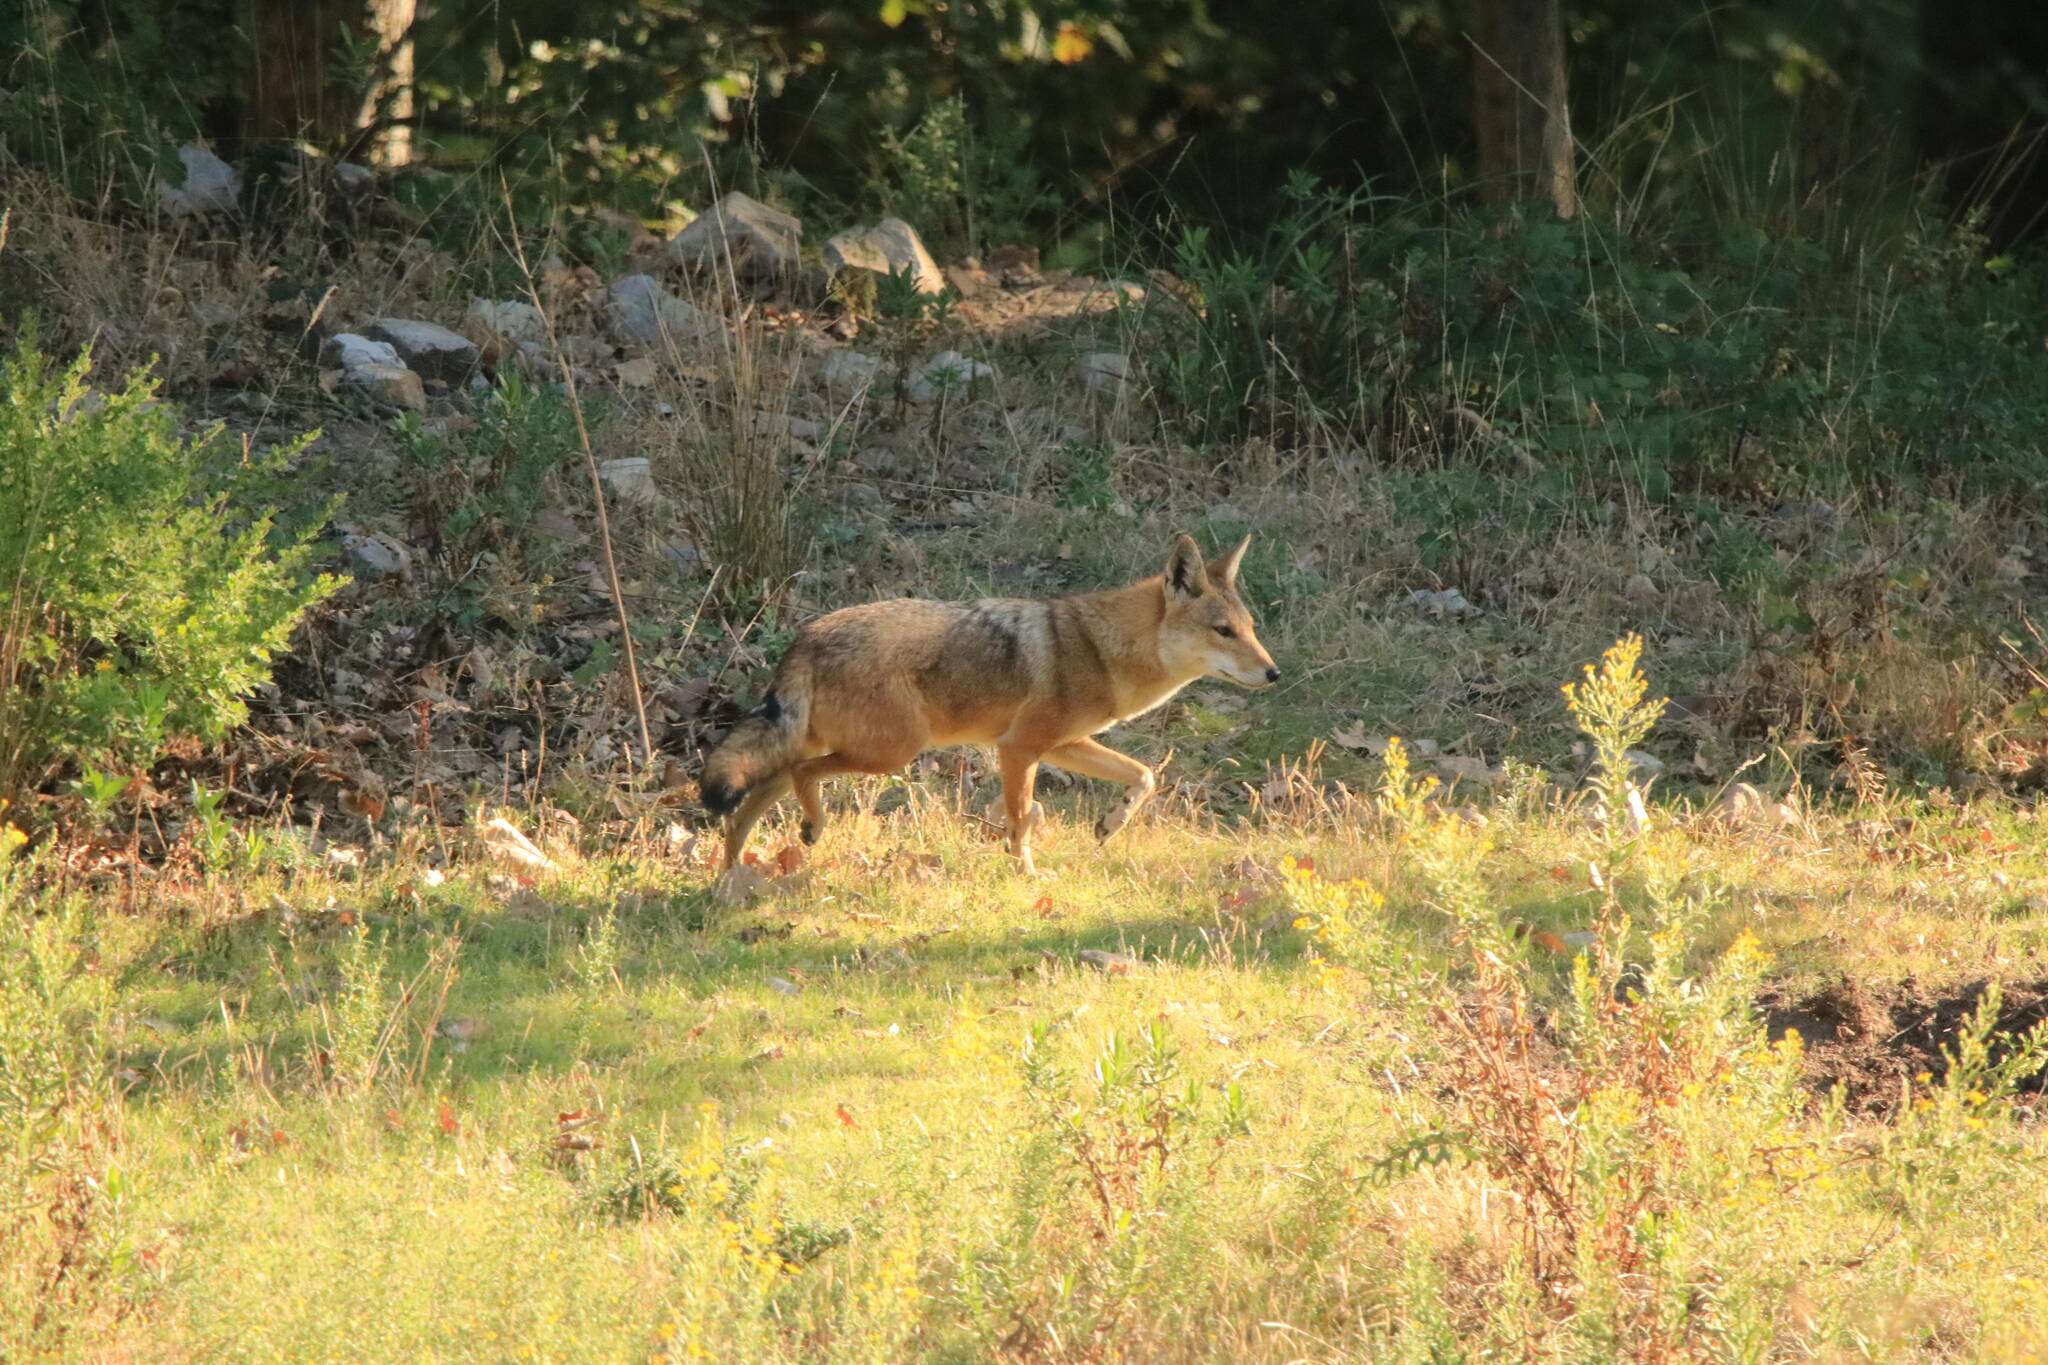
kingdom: Animalia
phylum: Chordata
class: Mammalia
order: Carnivora
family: Canidae
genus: Canis
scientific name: Canis lupaster
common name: African golden wolf
